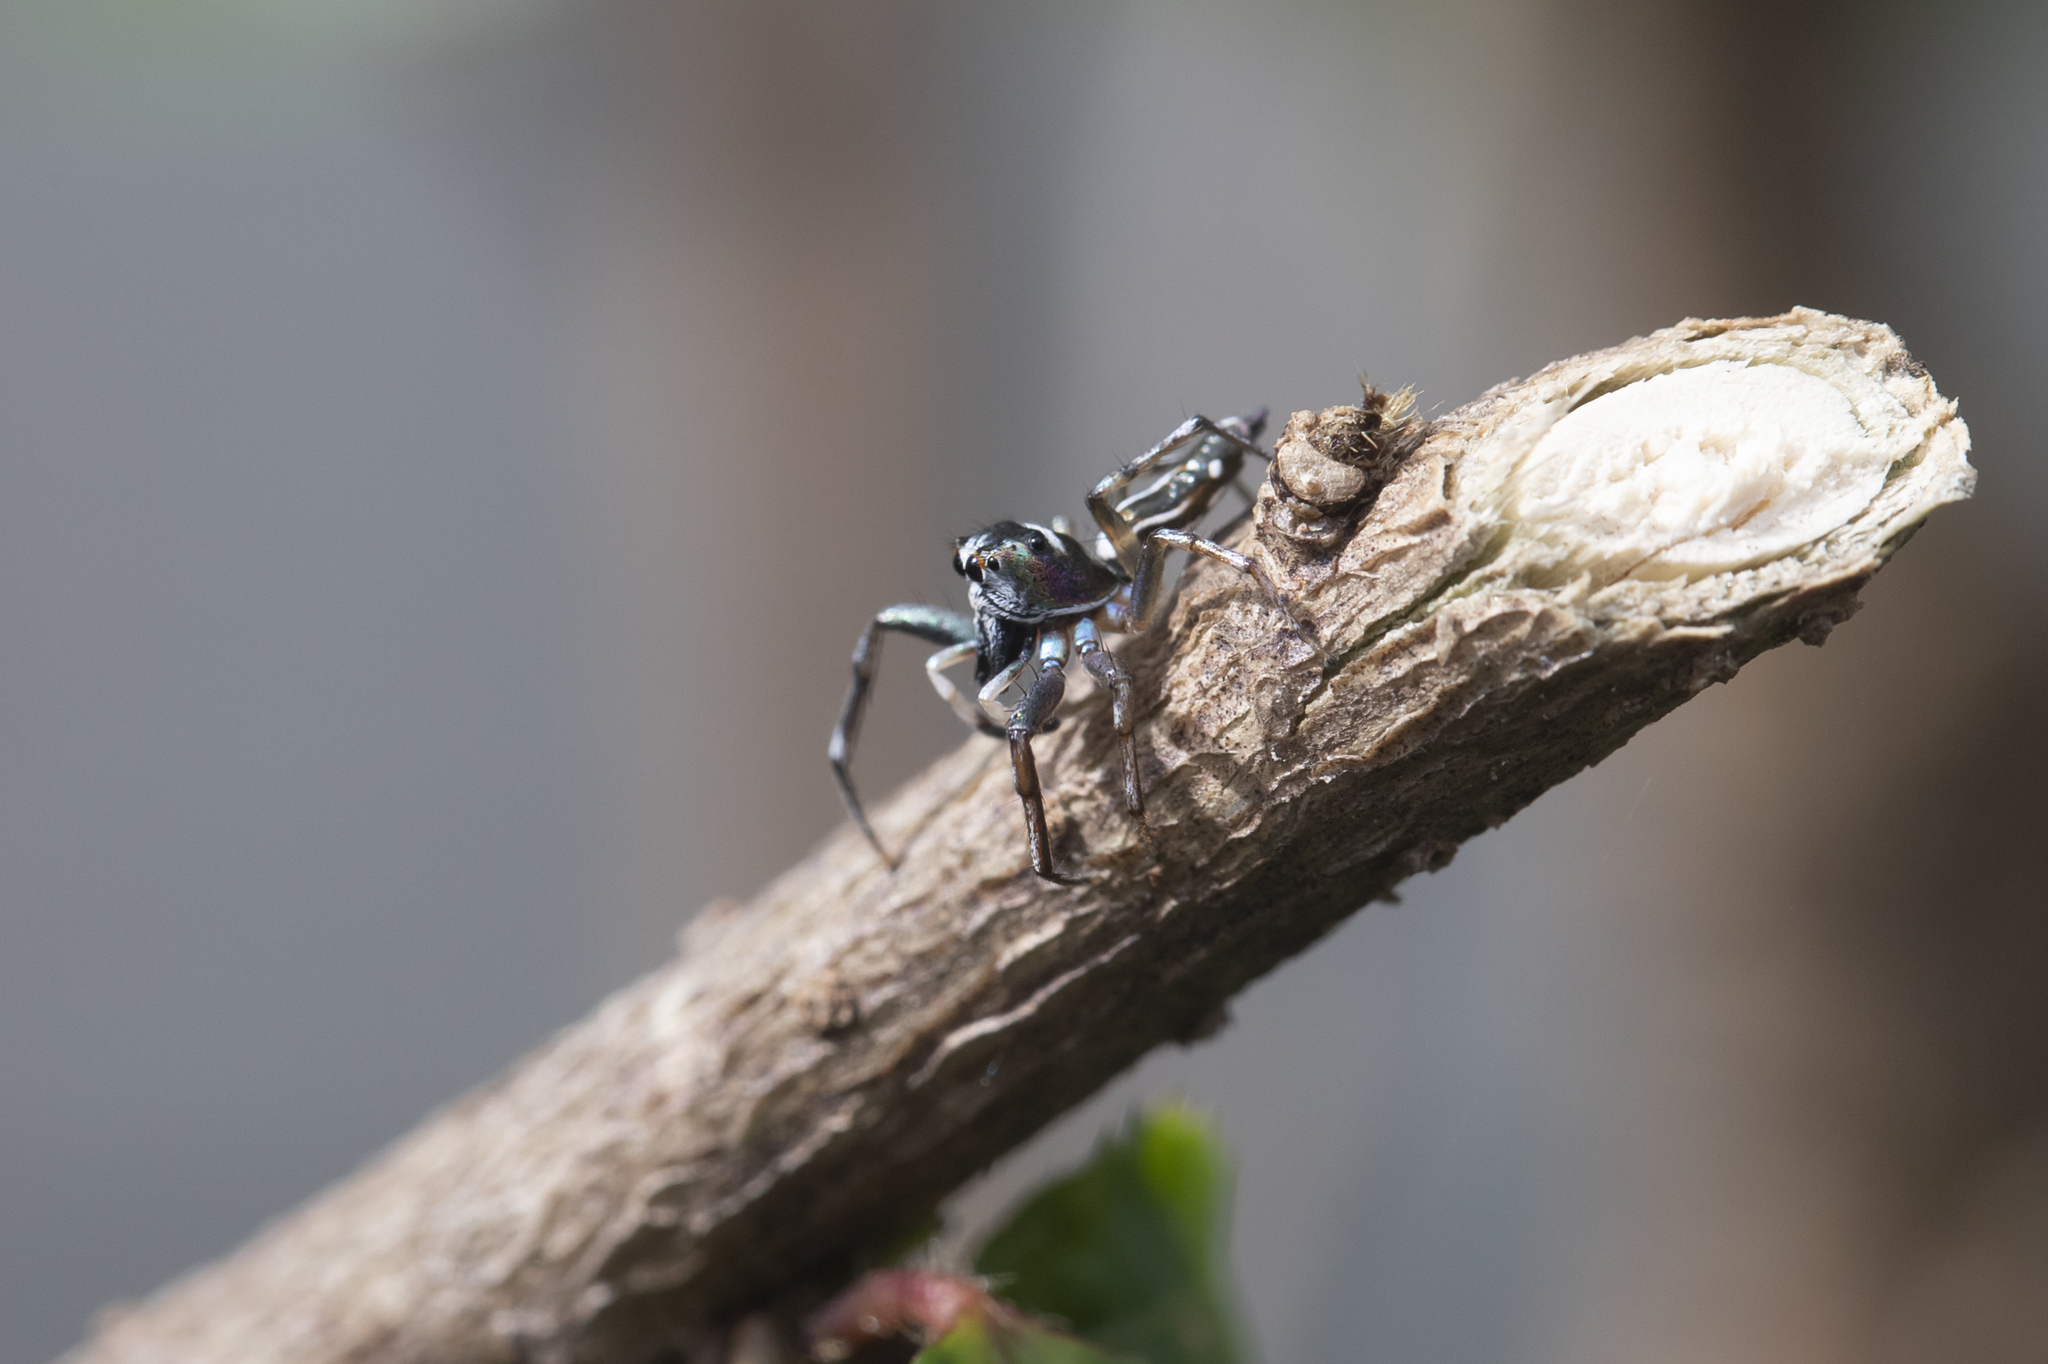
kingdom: Animalia
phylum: Arthropoda
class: Arachnida
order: Araneae
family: Salticidae
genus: Cosmophasis
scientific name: Cosmophasis baehrae
